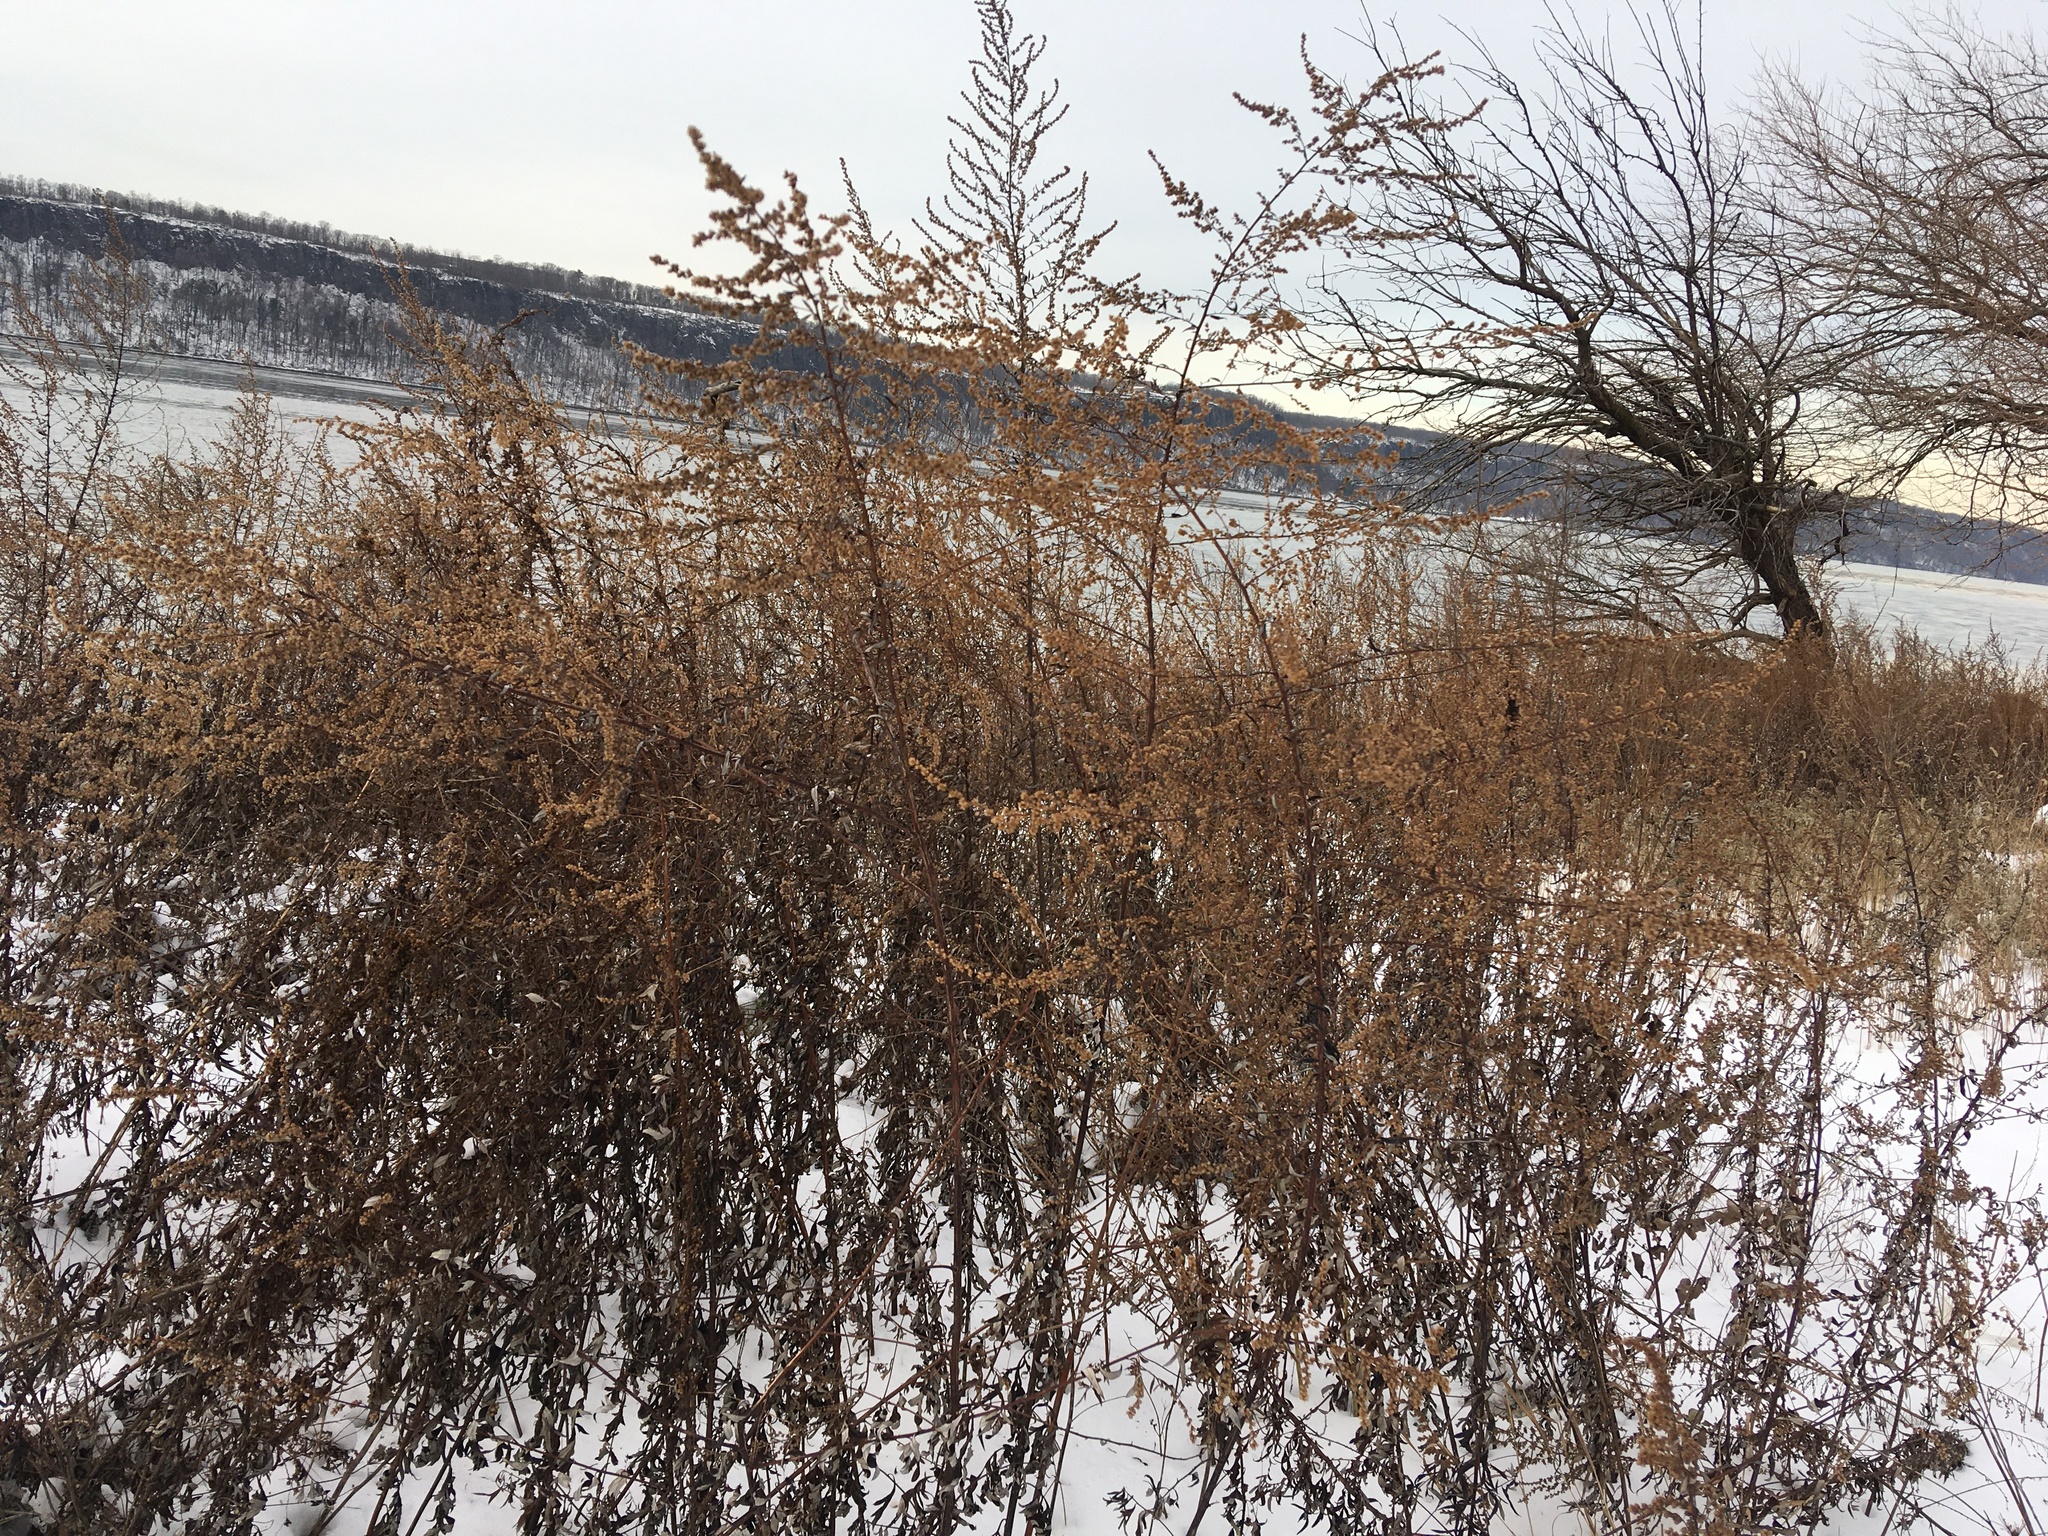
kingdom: Plantae
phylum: Tracheophyta
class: Magnoliopsida
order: Asterales
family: Asteraceae
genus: Artemisia
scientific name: Artemisia vulgaris
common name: Mugwort
